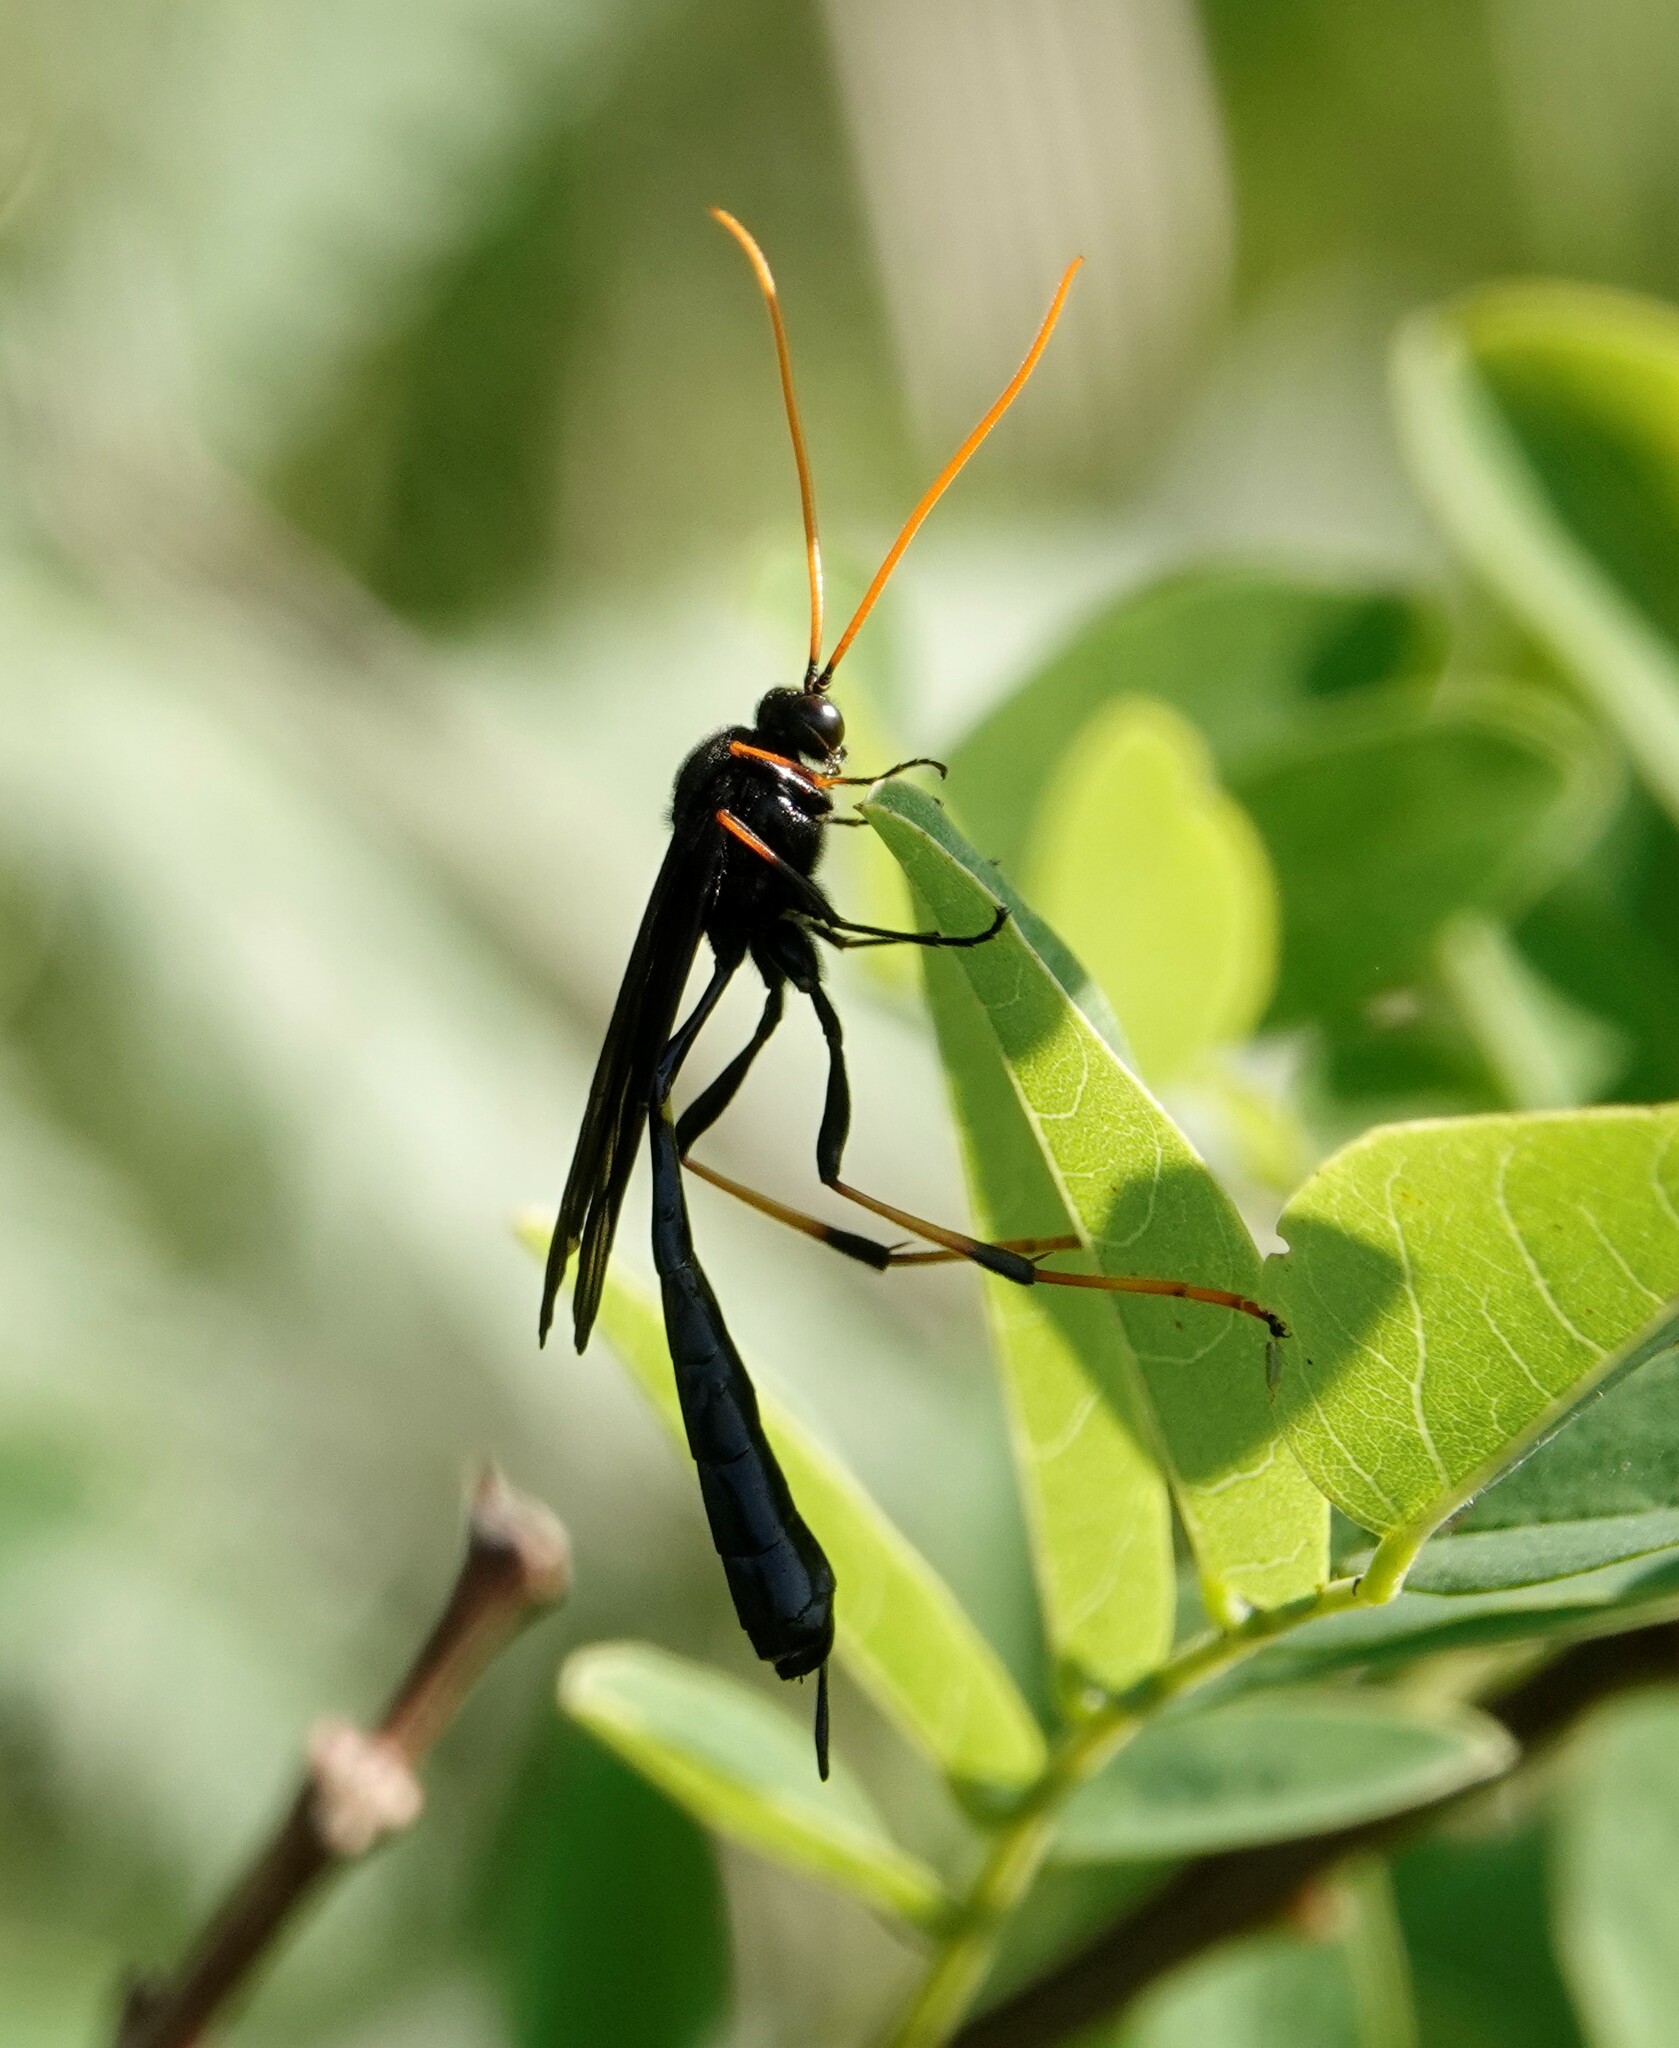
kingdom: Animalia
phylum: Arthropoda
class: Insecta
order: Hymenoptera
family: Ichneumonidae
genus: Therion
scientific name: Therion morio
